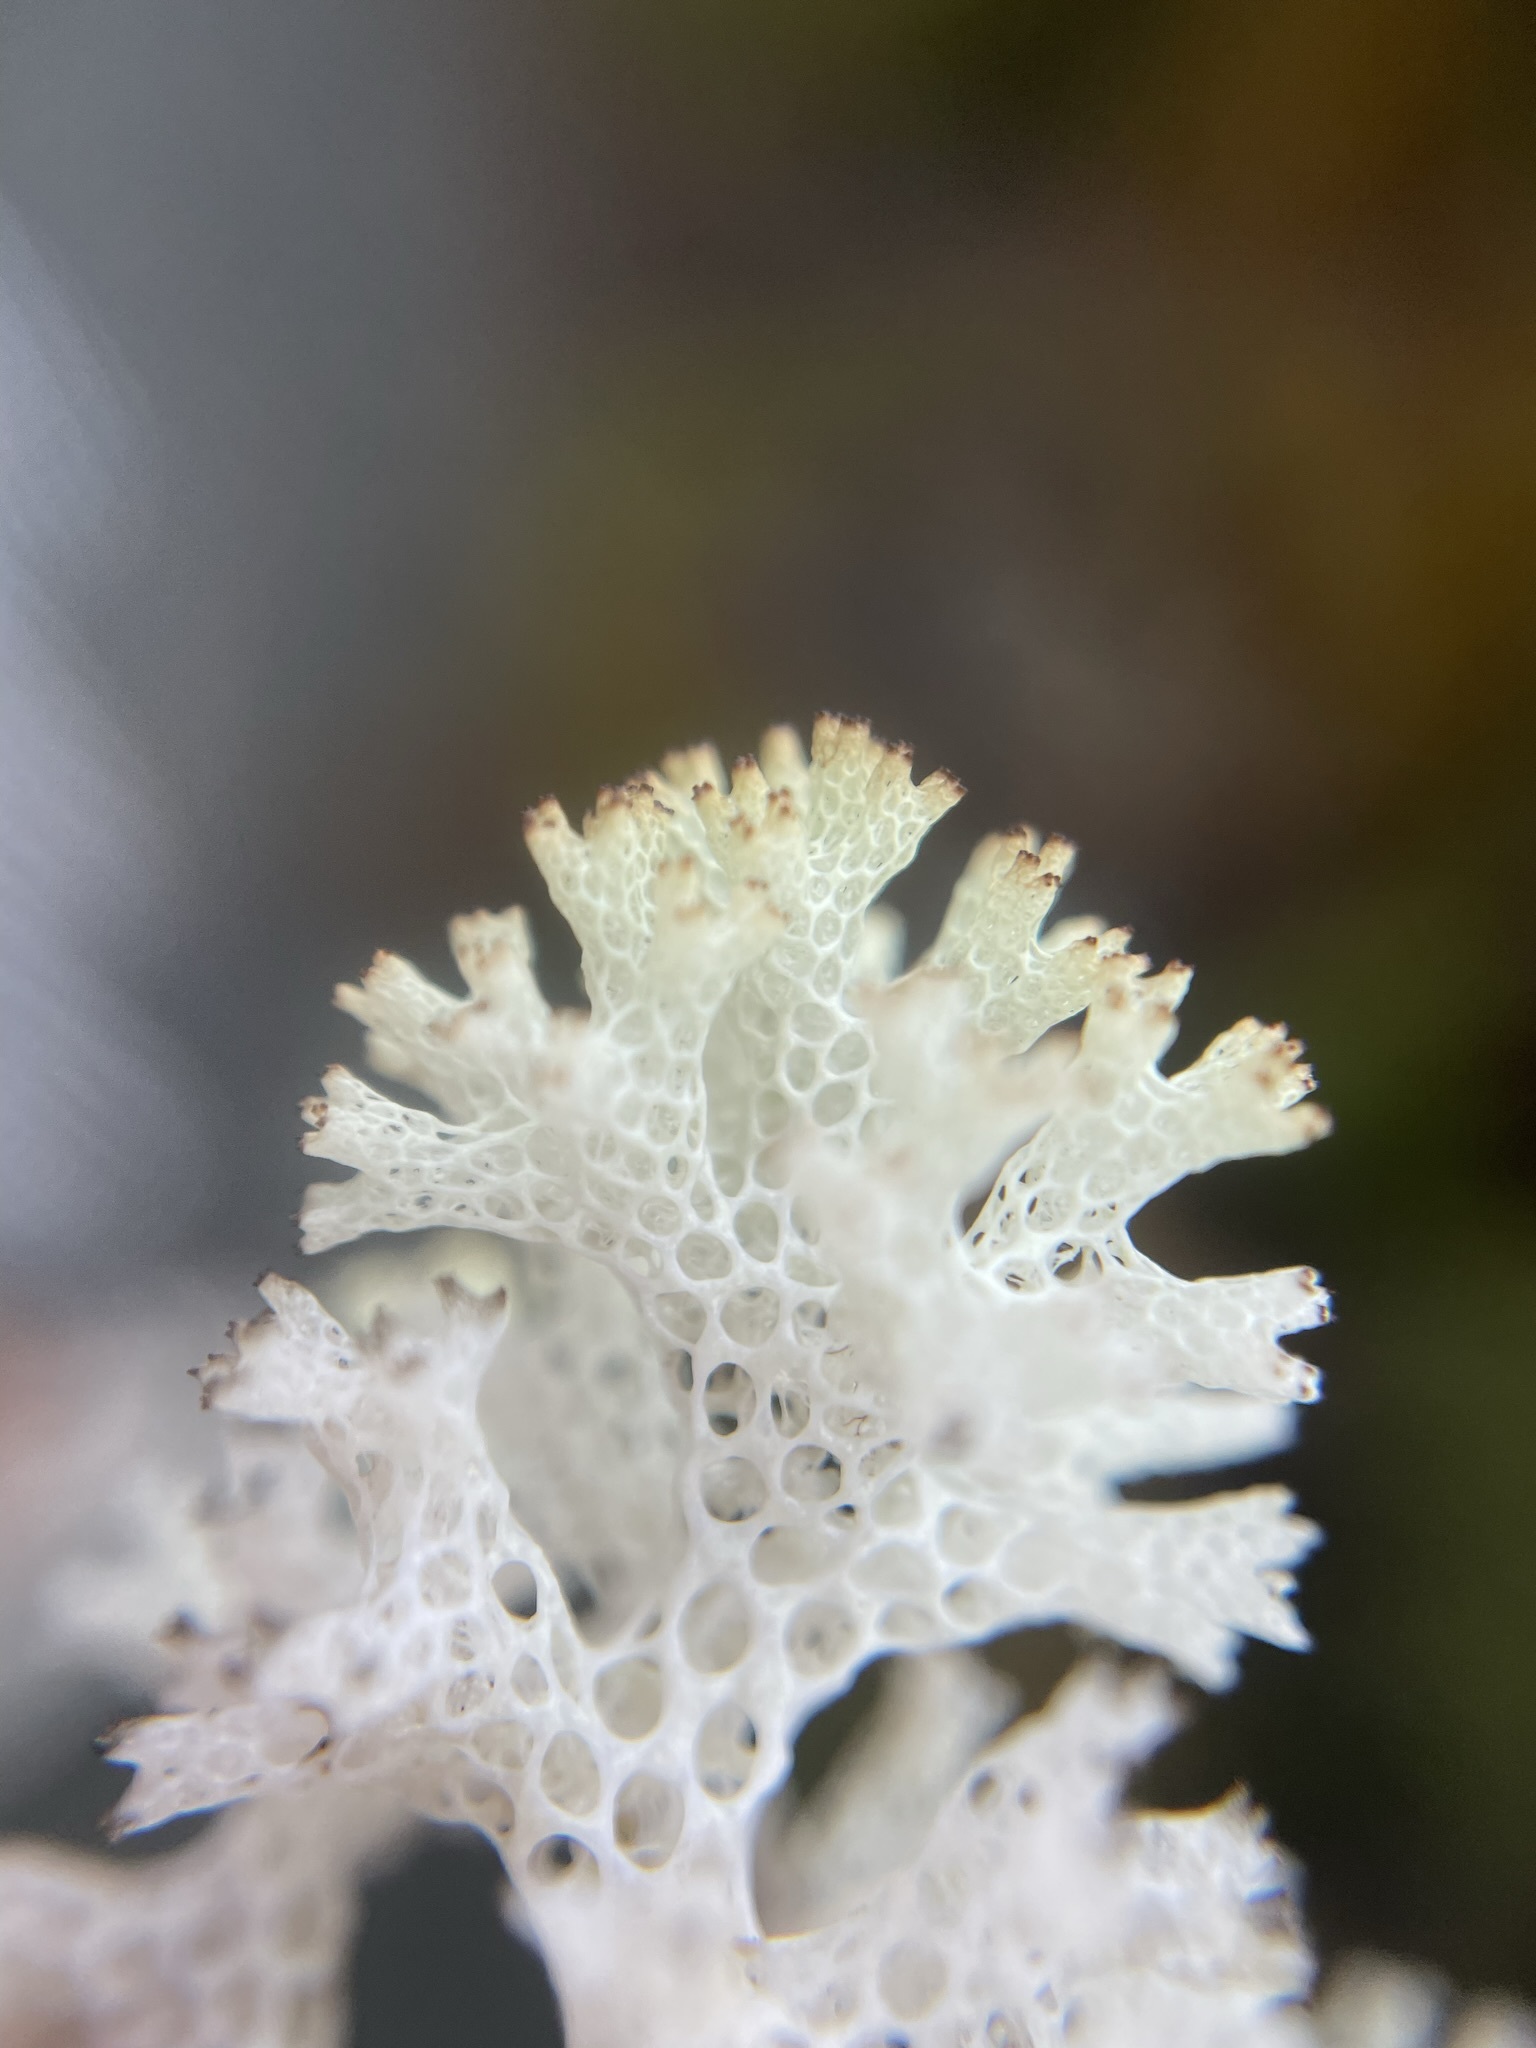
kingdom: Fungi
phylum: Ascomycota
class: Lecanoromycetes
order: Lecanorales
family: Cladoniaceae
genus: Pulchrocladia
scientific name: Pulchrocladia retipora
